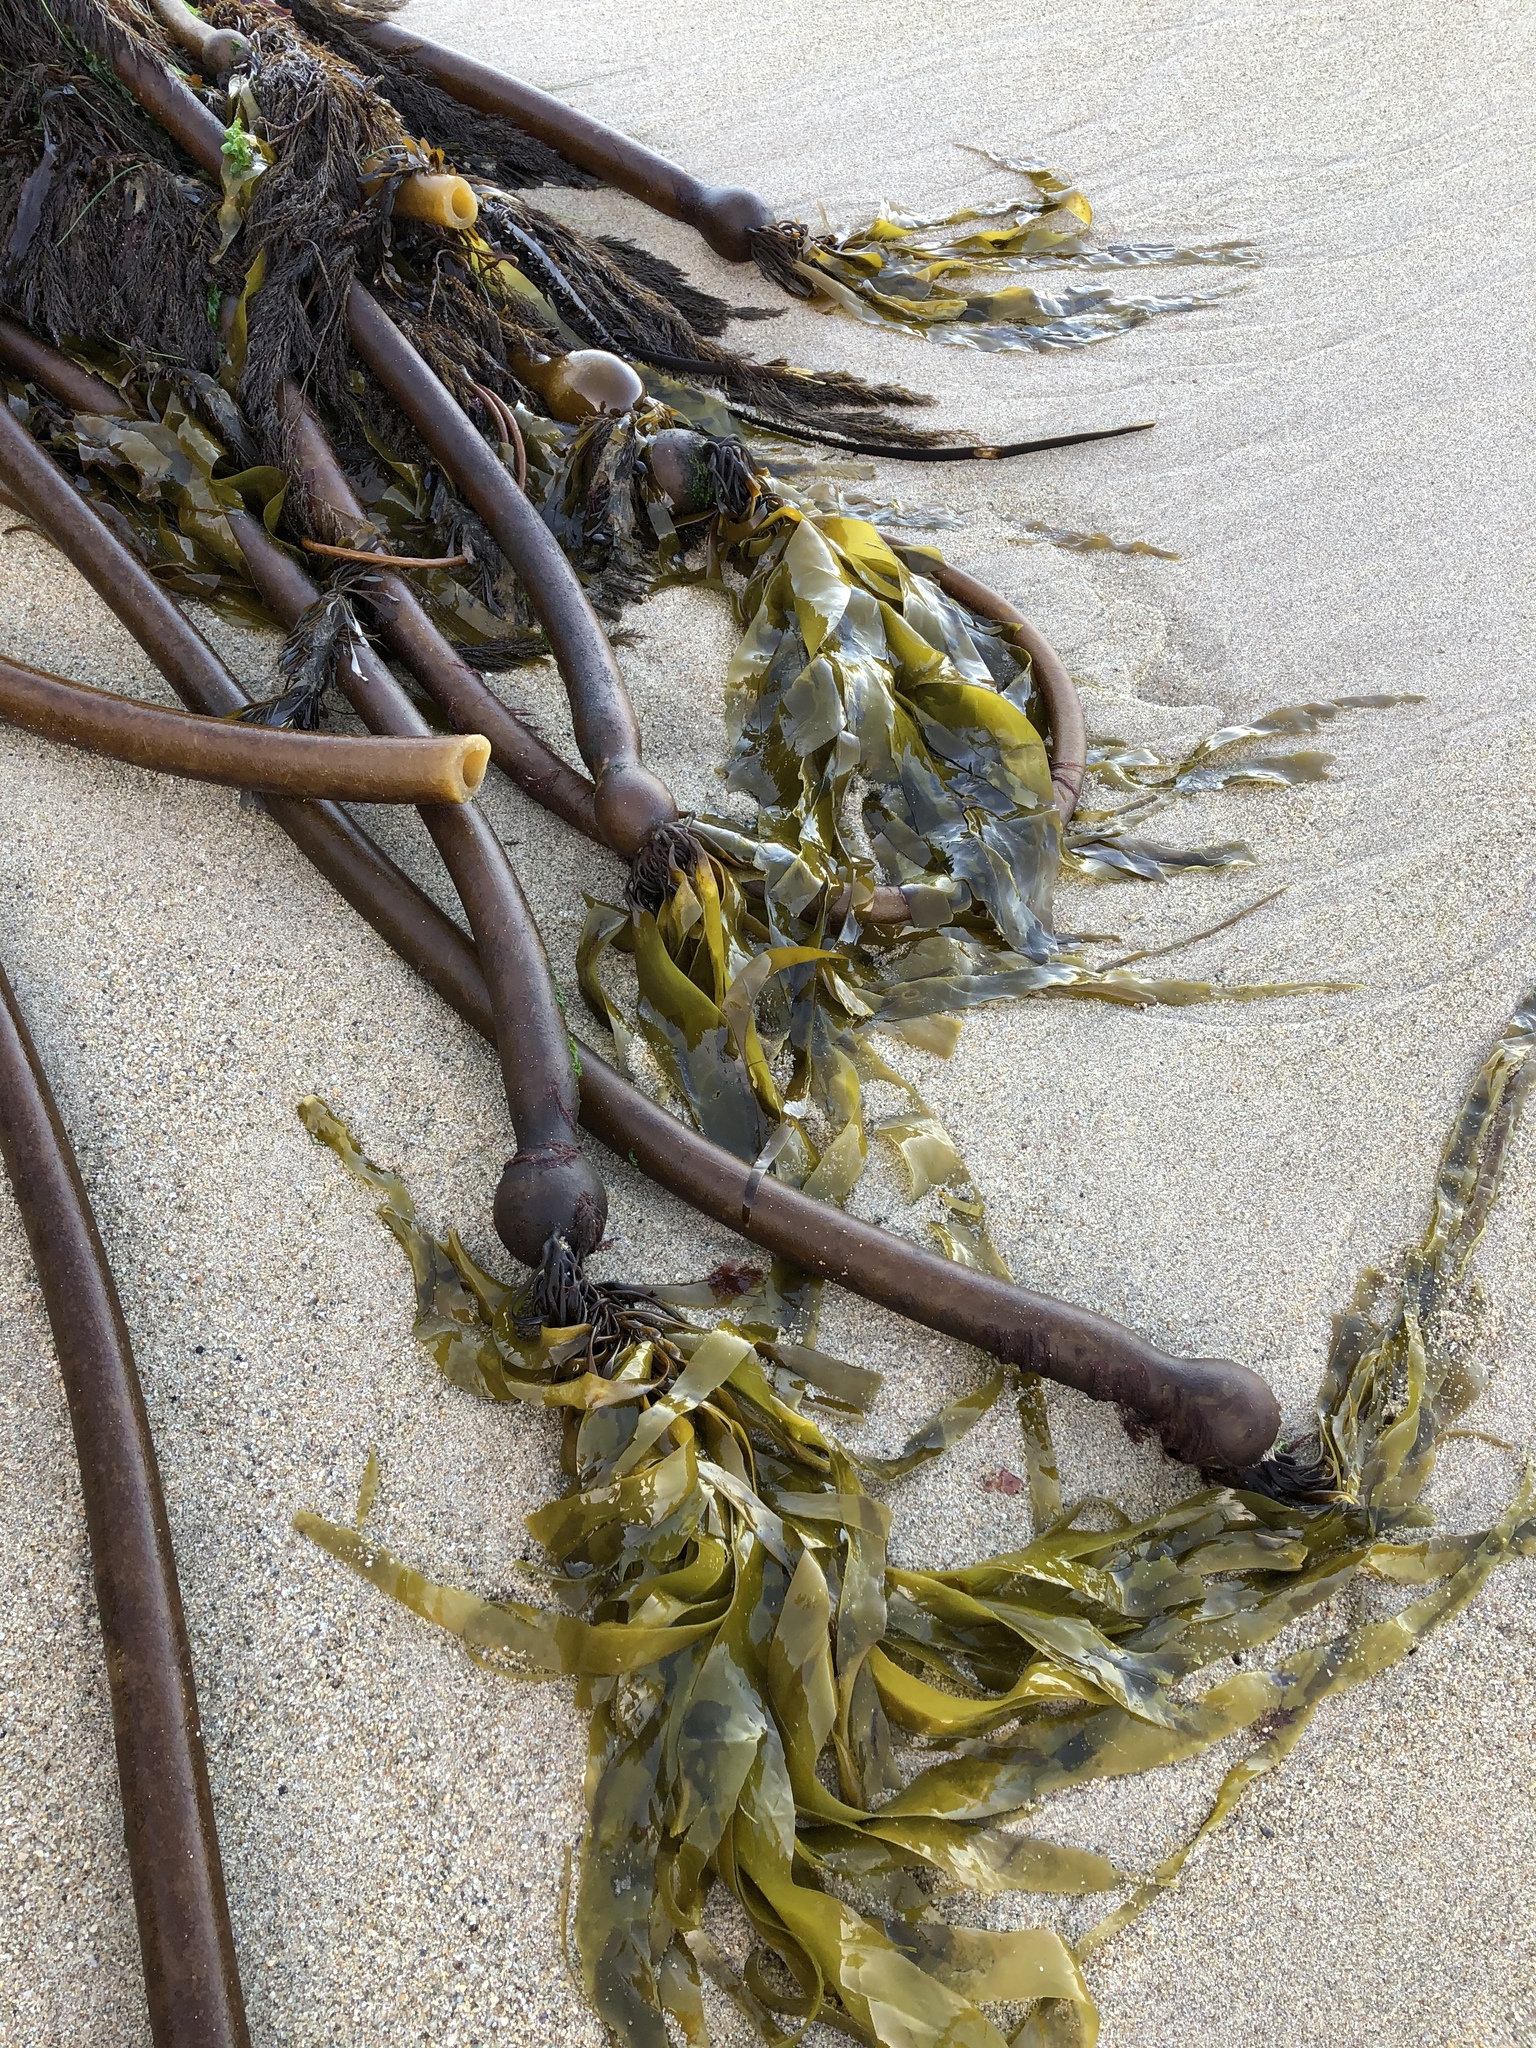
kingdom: Chromista
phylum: Ochrophyta
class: Phaeophyceae
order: Laminariales
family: Laminariaceae
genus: Nereocystis
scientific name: Nereocystis luetkeana
